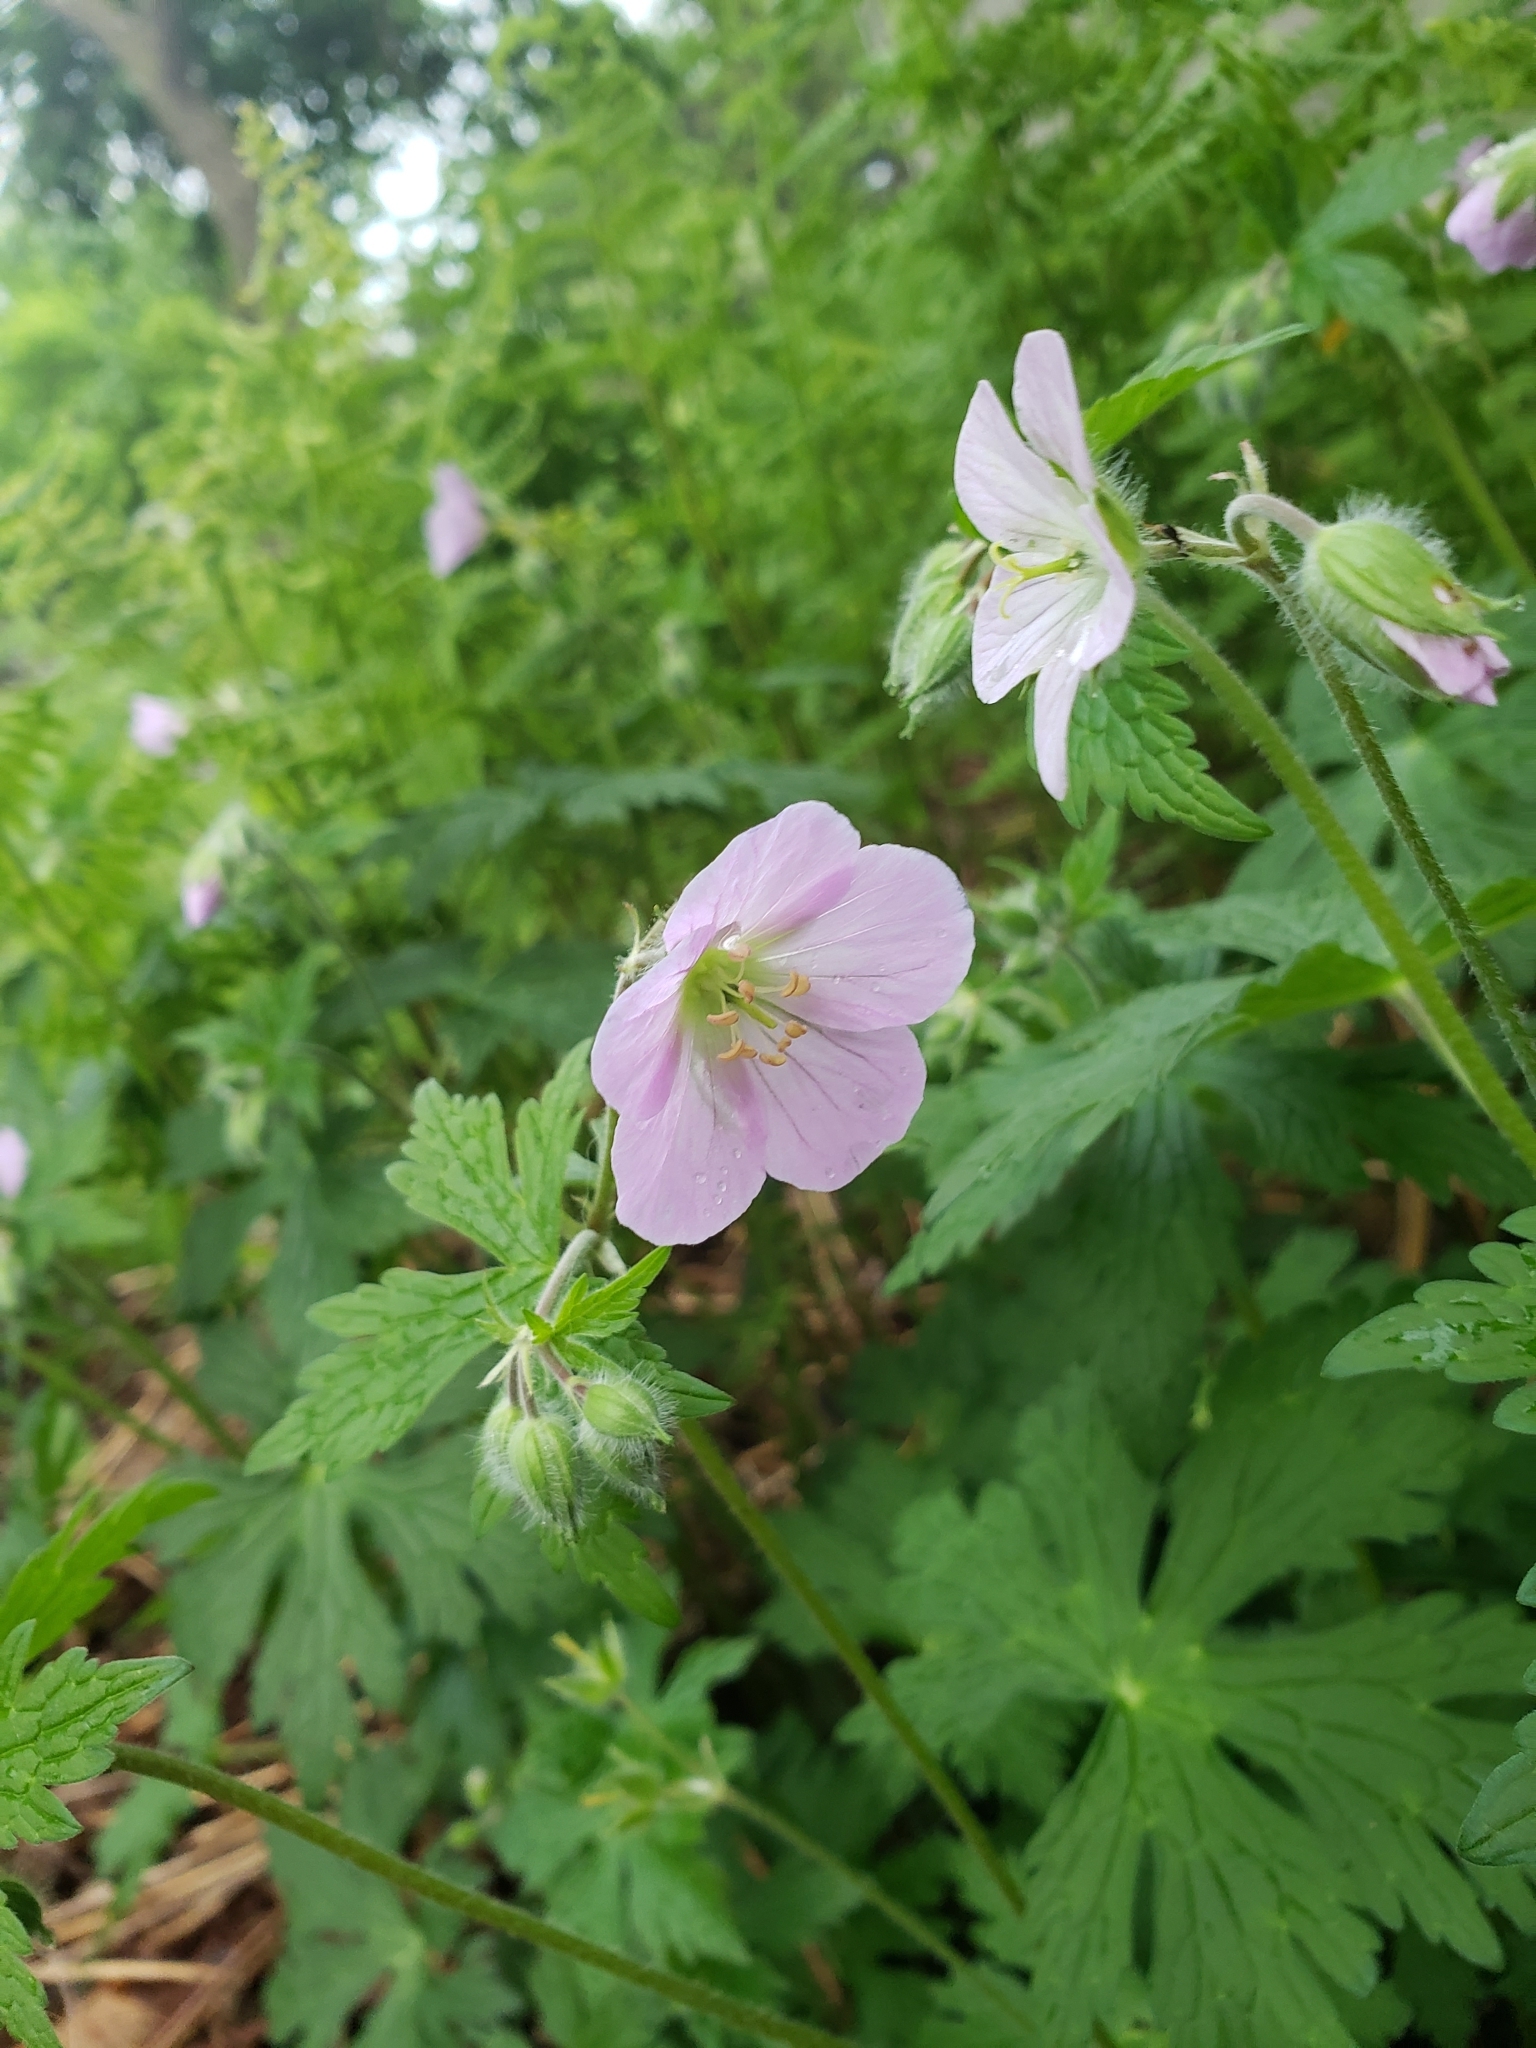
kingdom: Plantae
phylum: Tracheophyta
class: Magnoliopsida
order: Geraniales
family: Geraniaceae
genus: Geranium
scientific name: Geranium maculatum
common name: Spotted geranium
